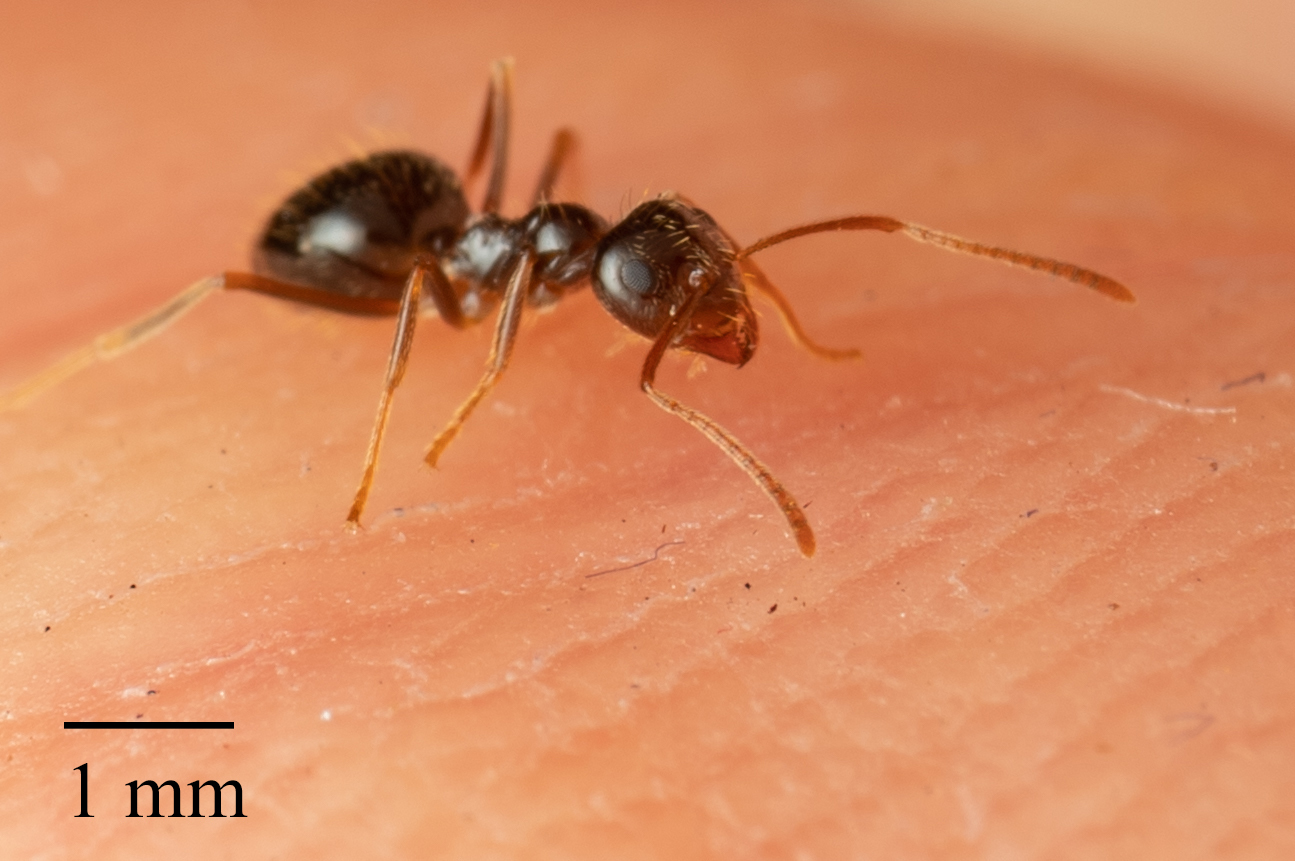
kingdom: Animalia
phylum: Arthropoda
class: Insecta
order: Hymenoptera
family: Formicidae
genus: Prenolepis
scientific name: Prenolepis imparis
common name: Small honey ant
